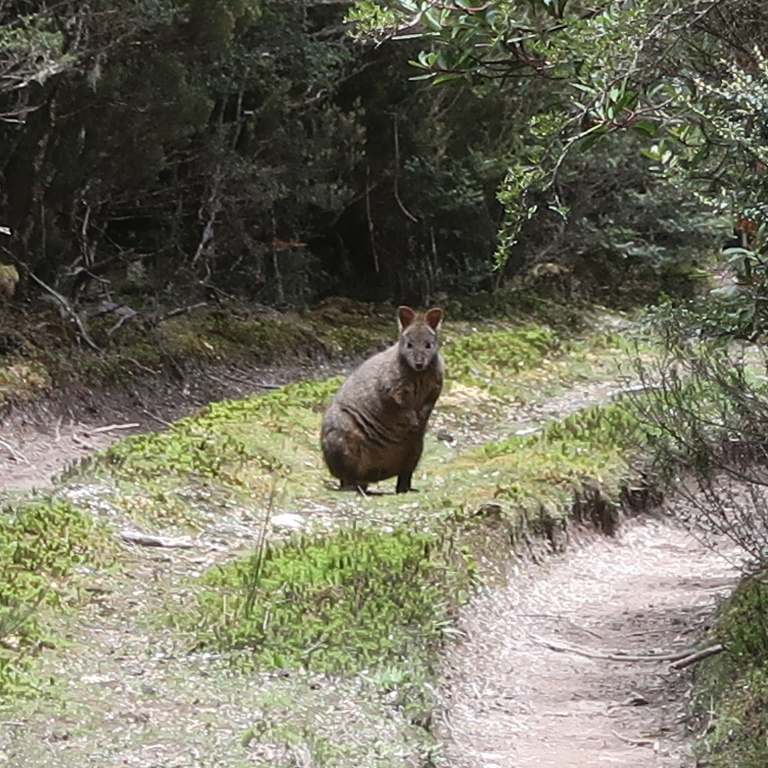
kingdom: Animalia
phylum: Chordata
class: Mammalia
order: Diprotodontia
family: Macropodidae
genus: Thylogale
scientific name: Thylogale billardierii
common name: Tasmanian pademelon
